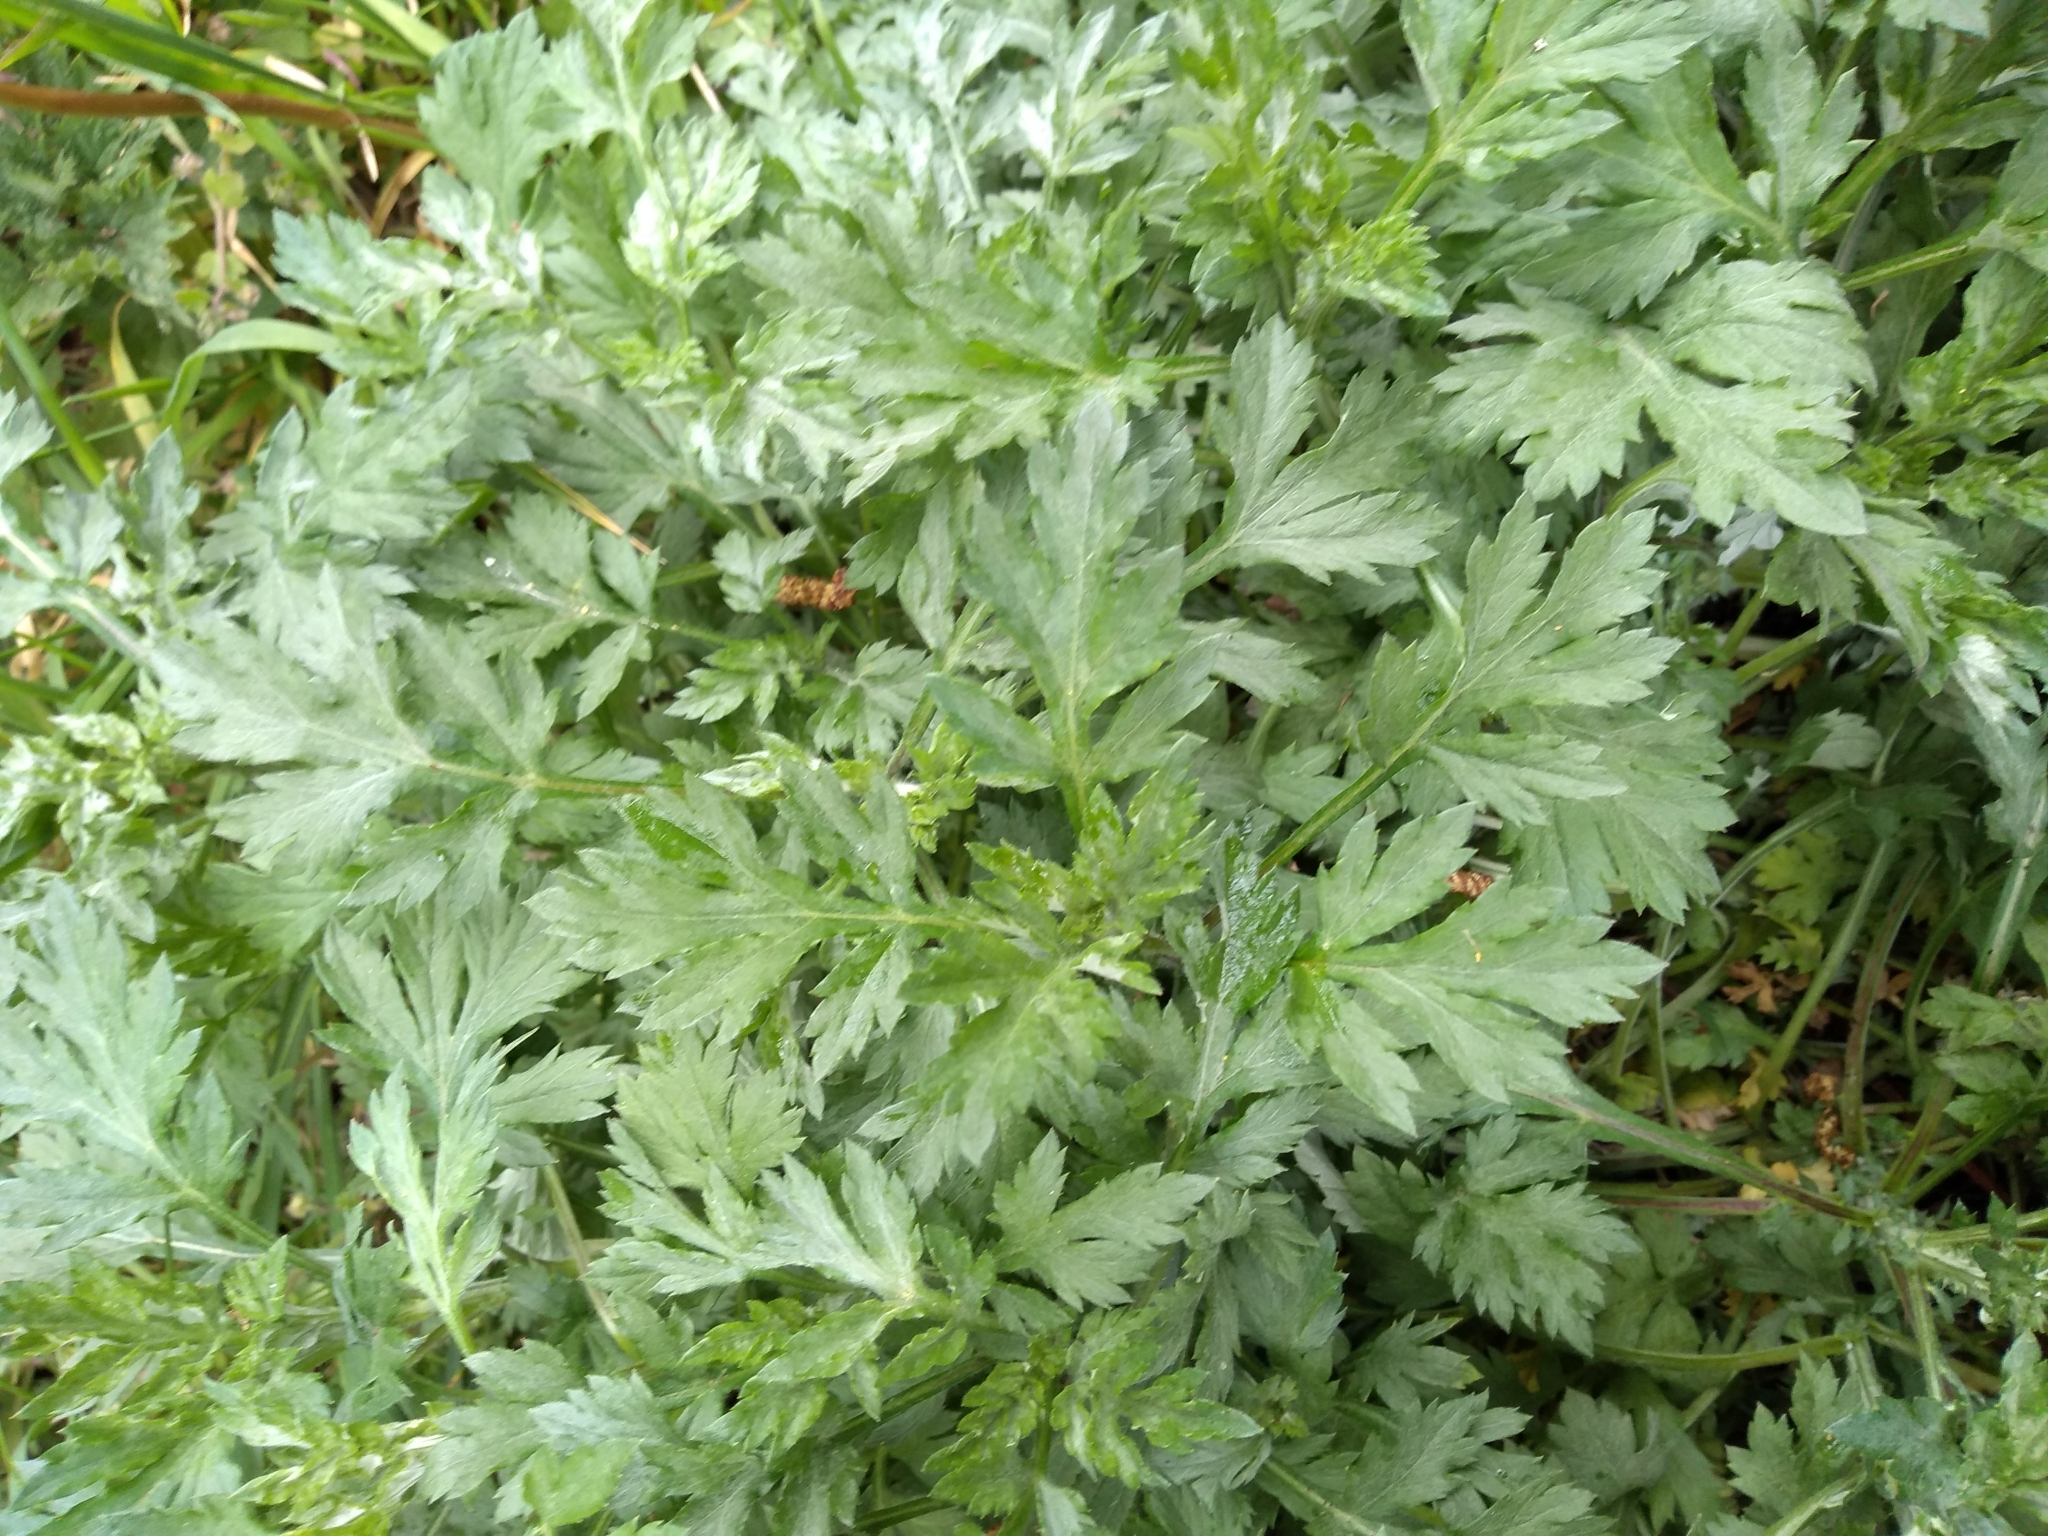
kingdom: Plantae
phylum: Tracheophyta
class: Magnoliopsida
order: Asterales
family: Asteraceae
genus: Artemisia
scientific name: Artemisia vulgaris
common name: Mugwort
